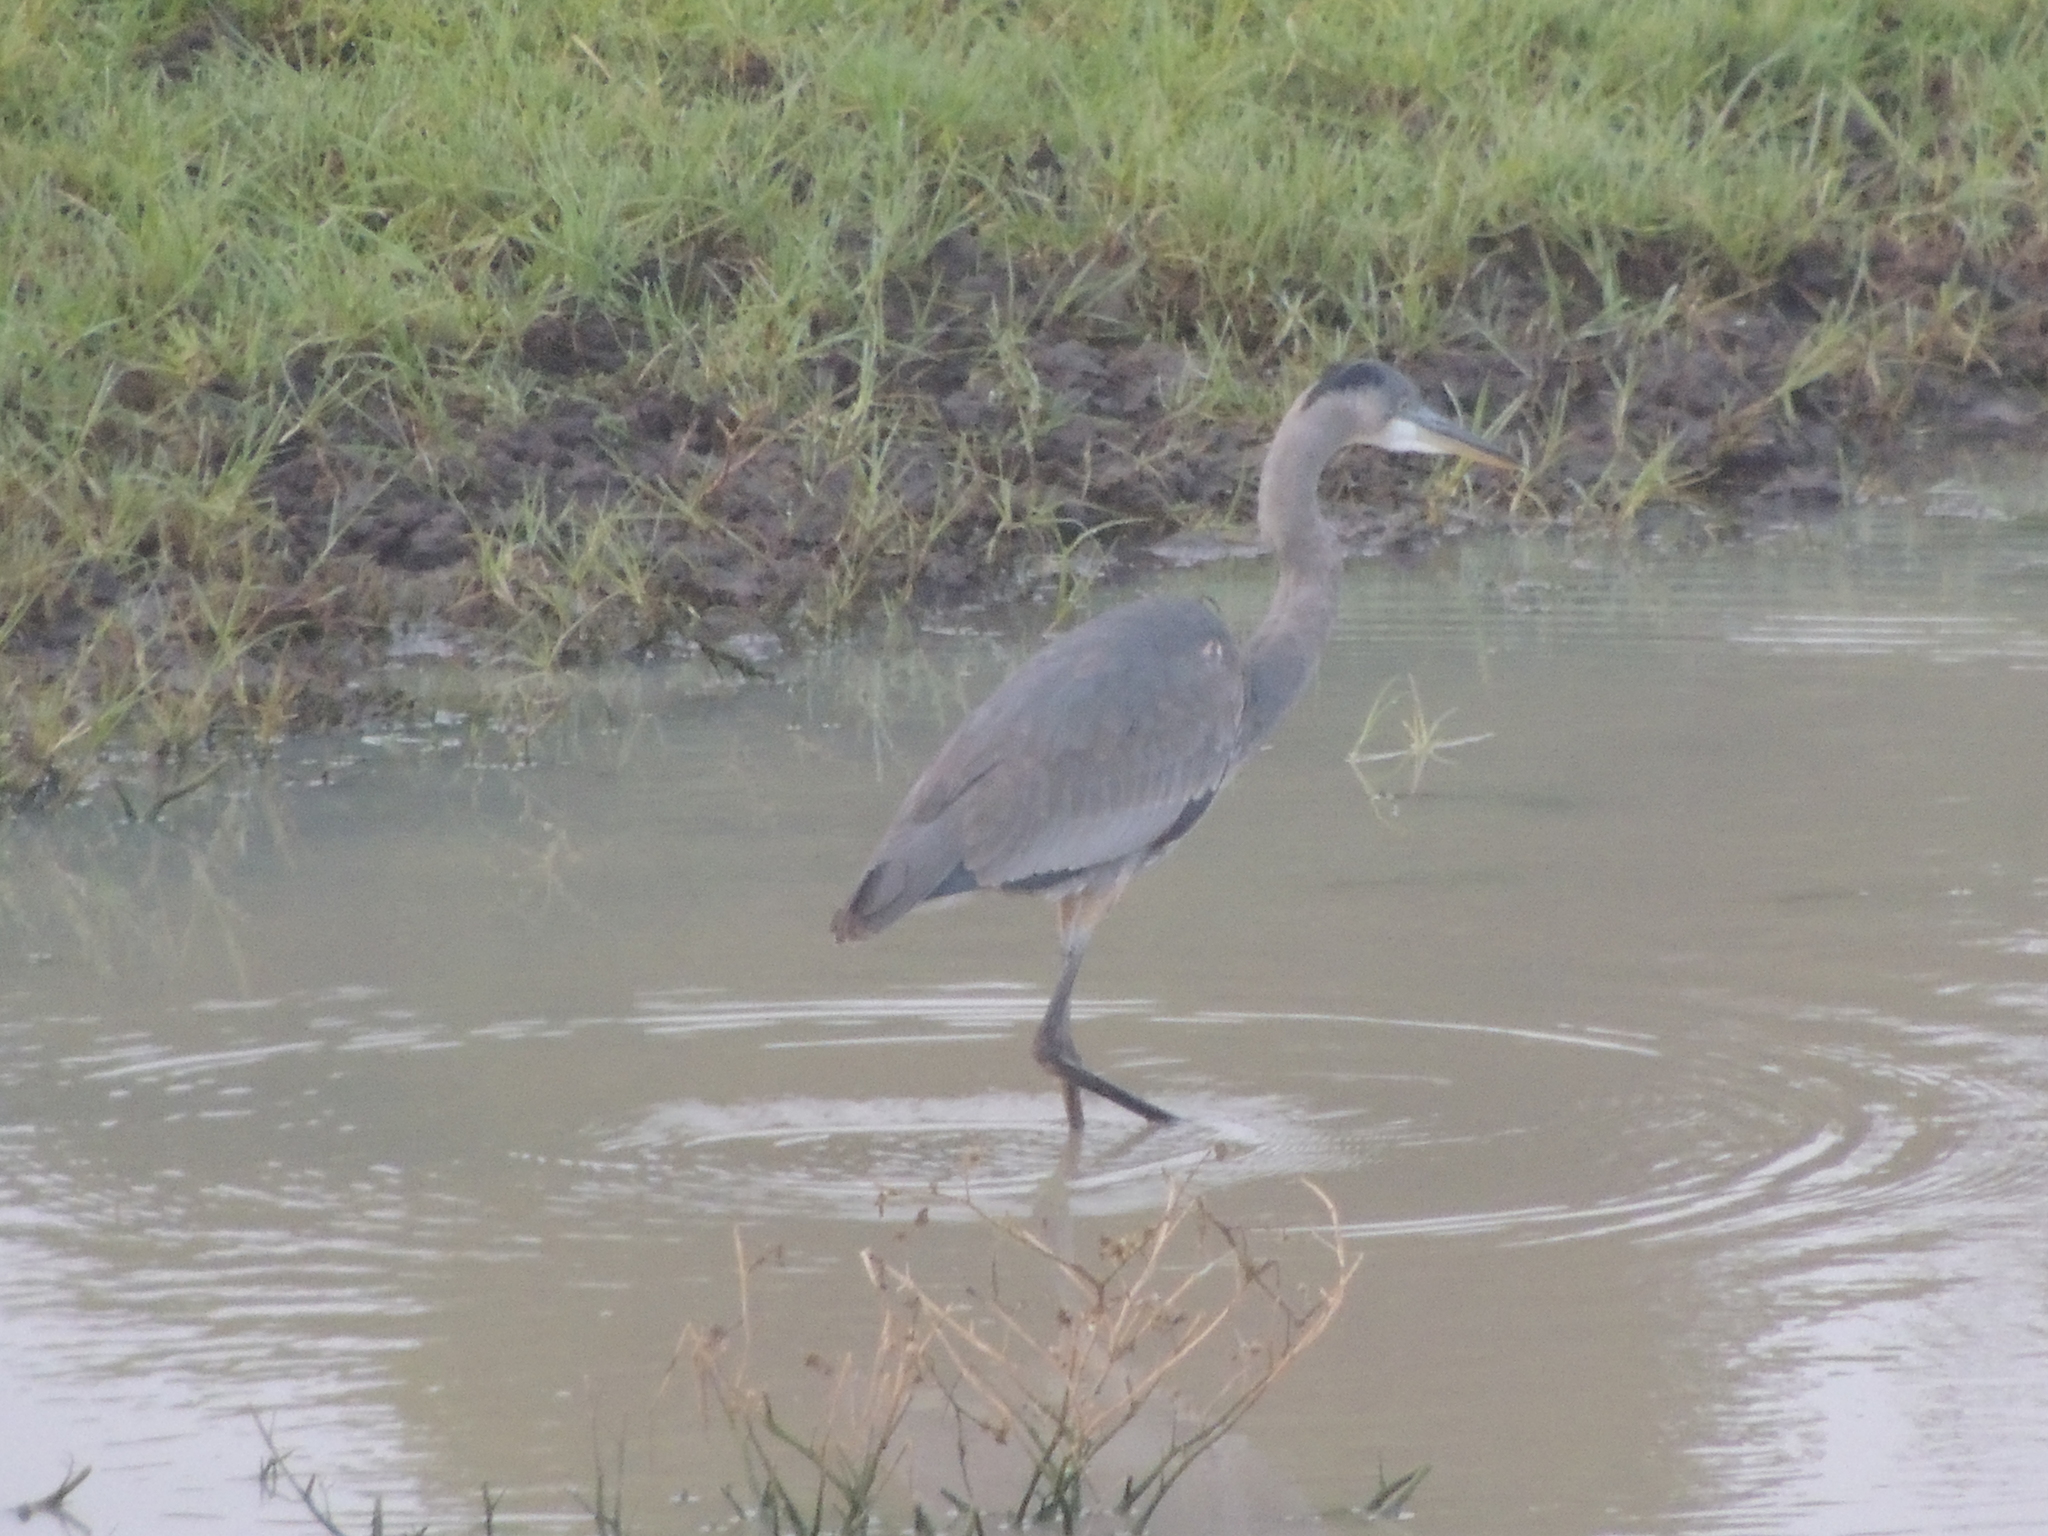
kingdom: Animalia
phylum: Chordata
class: Aves
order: Pelecaniformes
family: Ardeidae
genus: Ardea
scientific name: Ardea herodias
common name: Great blue heron
